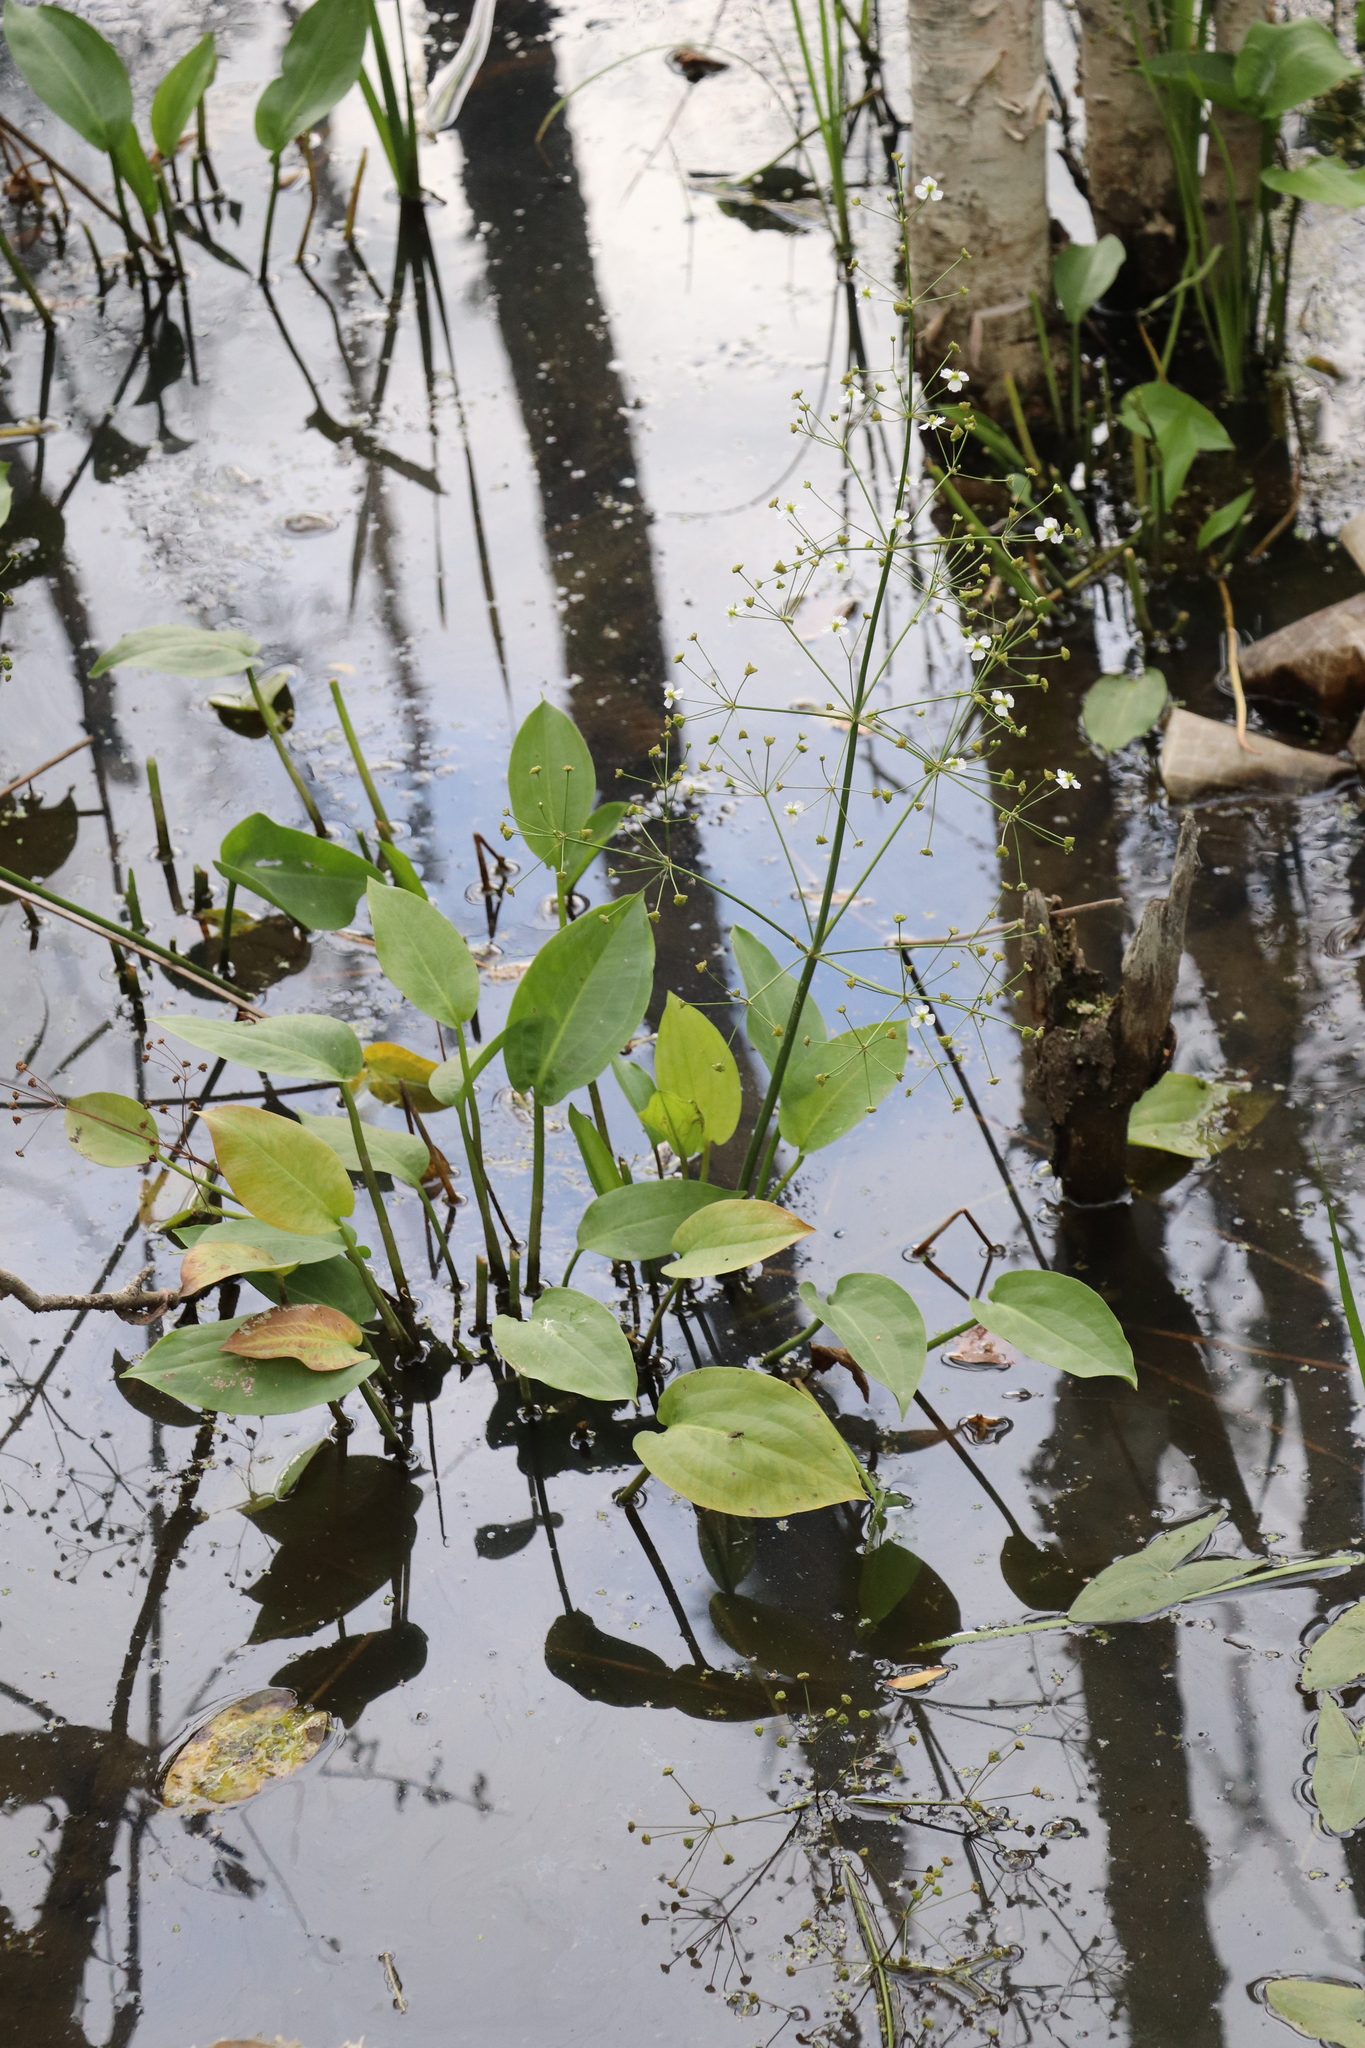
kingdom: Plantae
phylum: Tracheophyta
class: Liliopsida
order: Alismatales
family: Alismataceae
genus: Alisma
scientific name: Alisma plantago-aquatica
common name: Water-plantain
